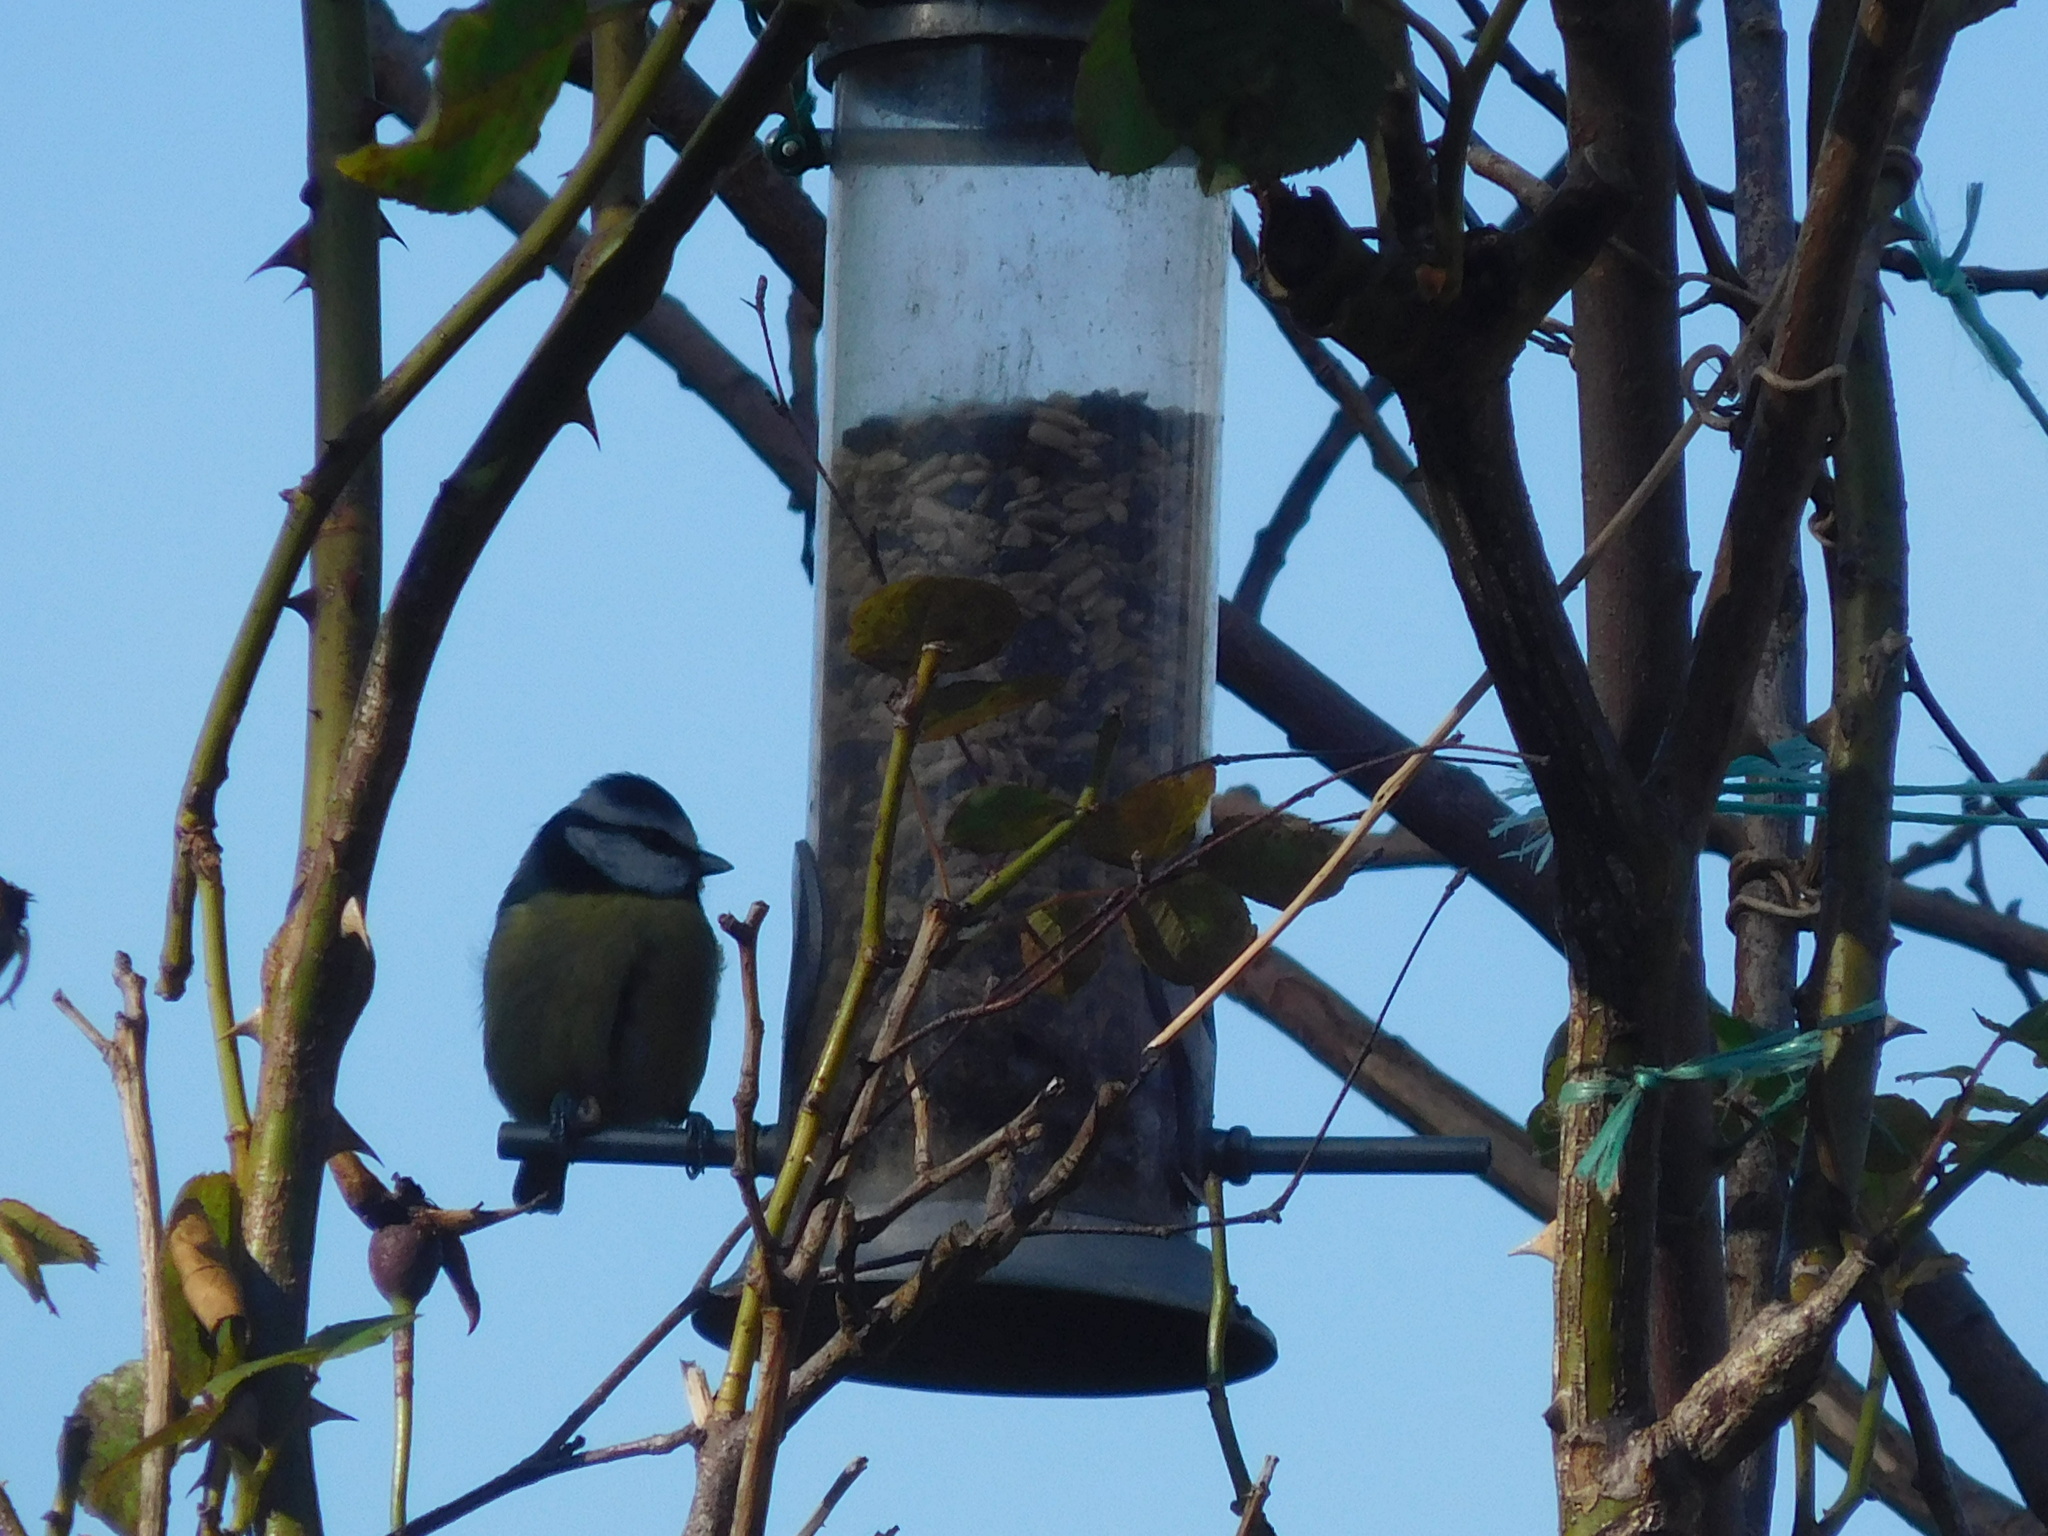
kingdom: Animalia
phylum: Chordata
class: Aves
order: Passeriformes
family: Paridae
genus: Cyanistes
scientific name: Cyanistes caeruleus
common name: Eurasian blue tit
